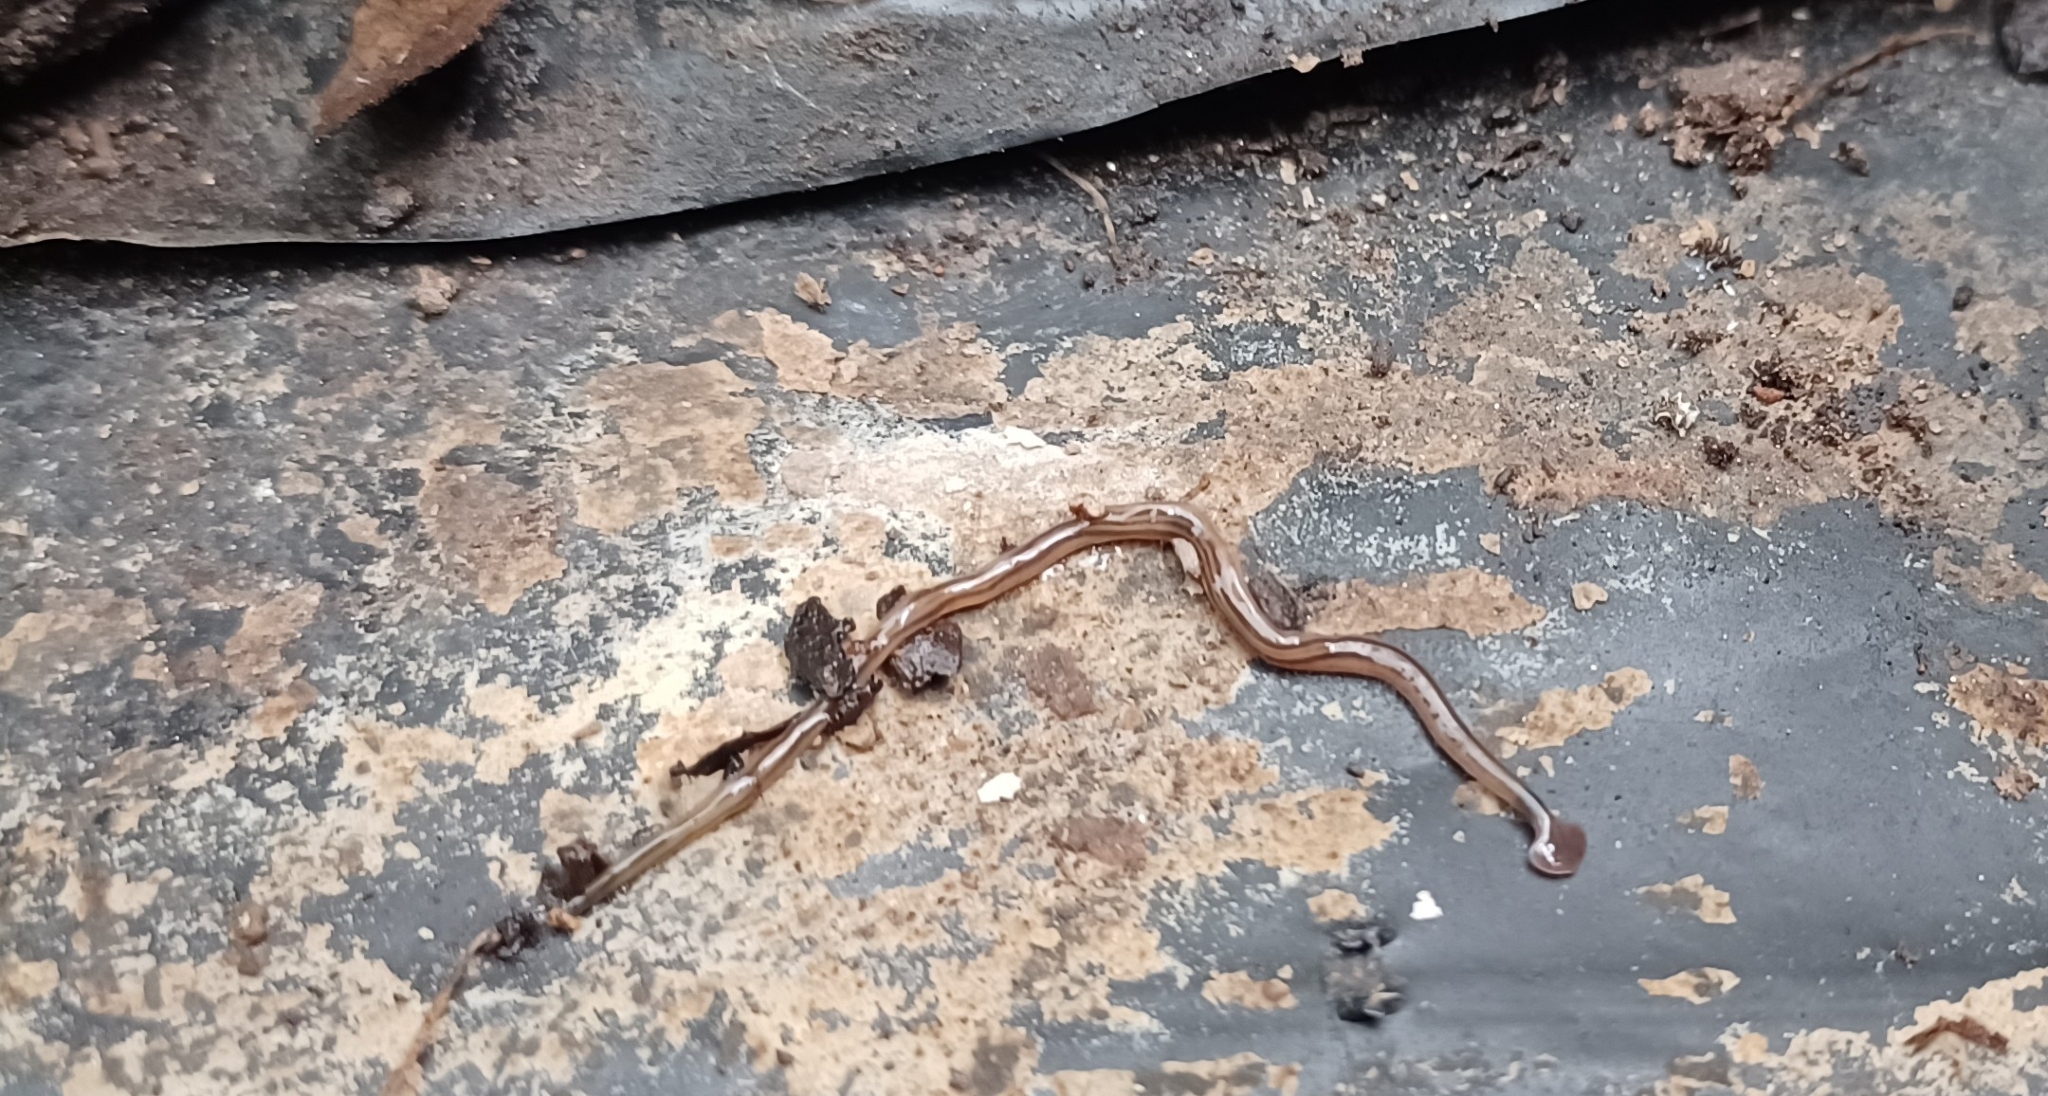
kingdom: Animalia
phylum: Platyhelminthes
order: Tricladida
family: Geoplanidae
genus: Bipalium
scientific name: Bipalium kewense
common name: Hammerhead flatworm
